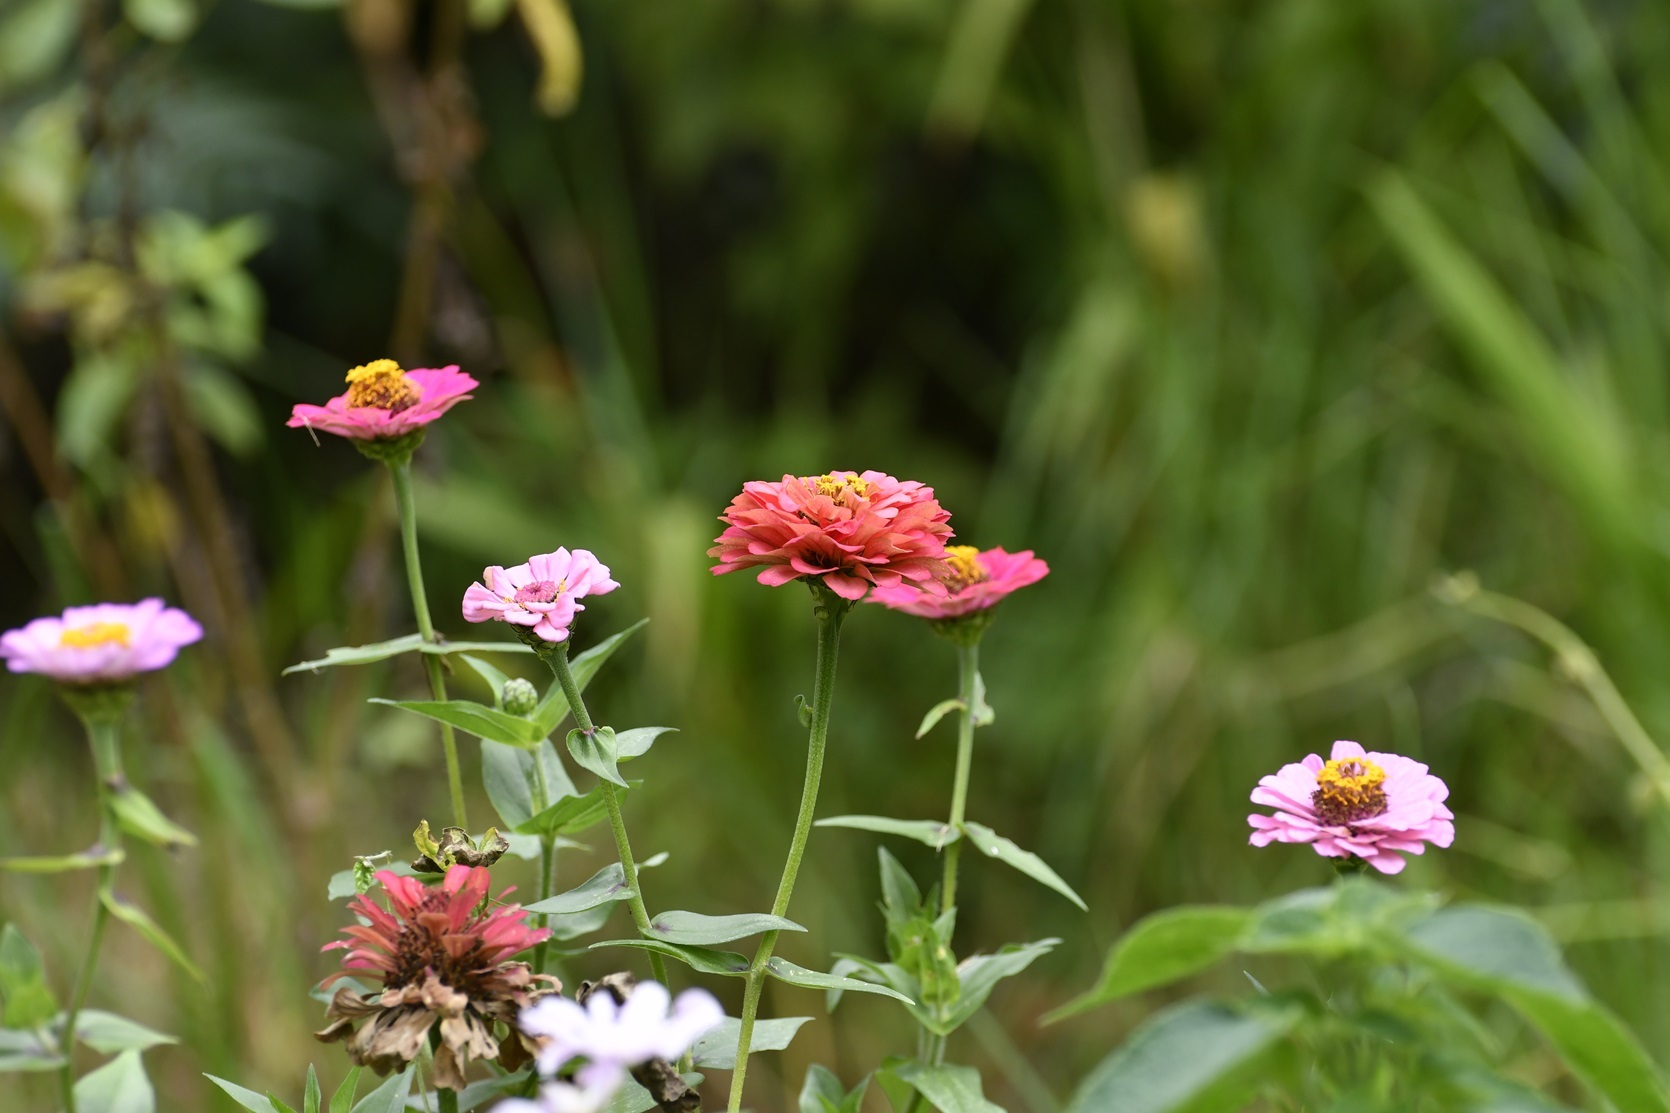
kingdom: Plantae
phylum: Tracheophyta
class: Magnoliopsida
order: Asterales
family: Asteraceae
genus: Zinnia
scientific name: Zinnia elegans
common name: Youth-and-age
